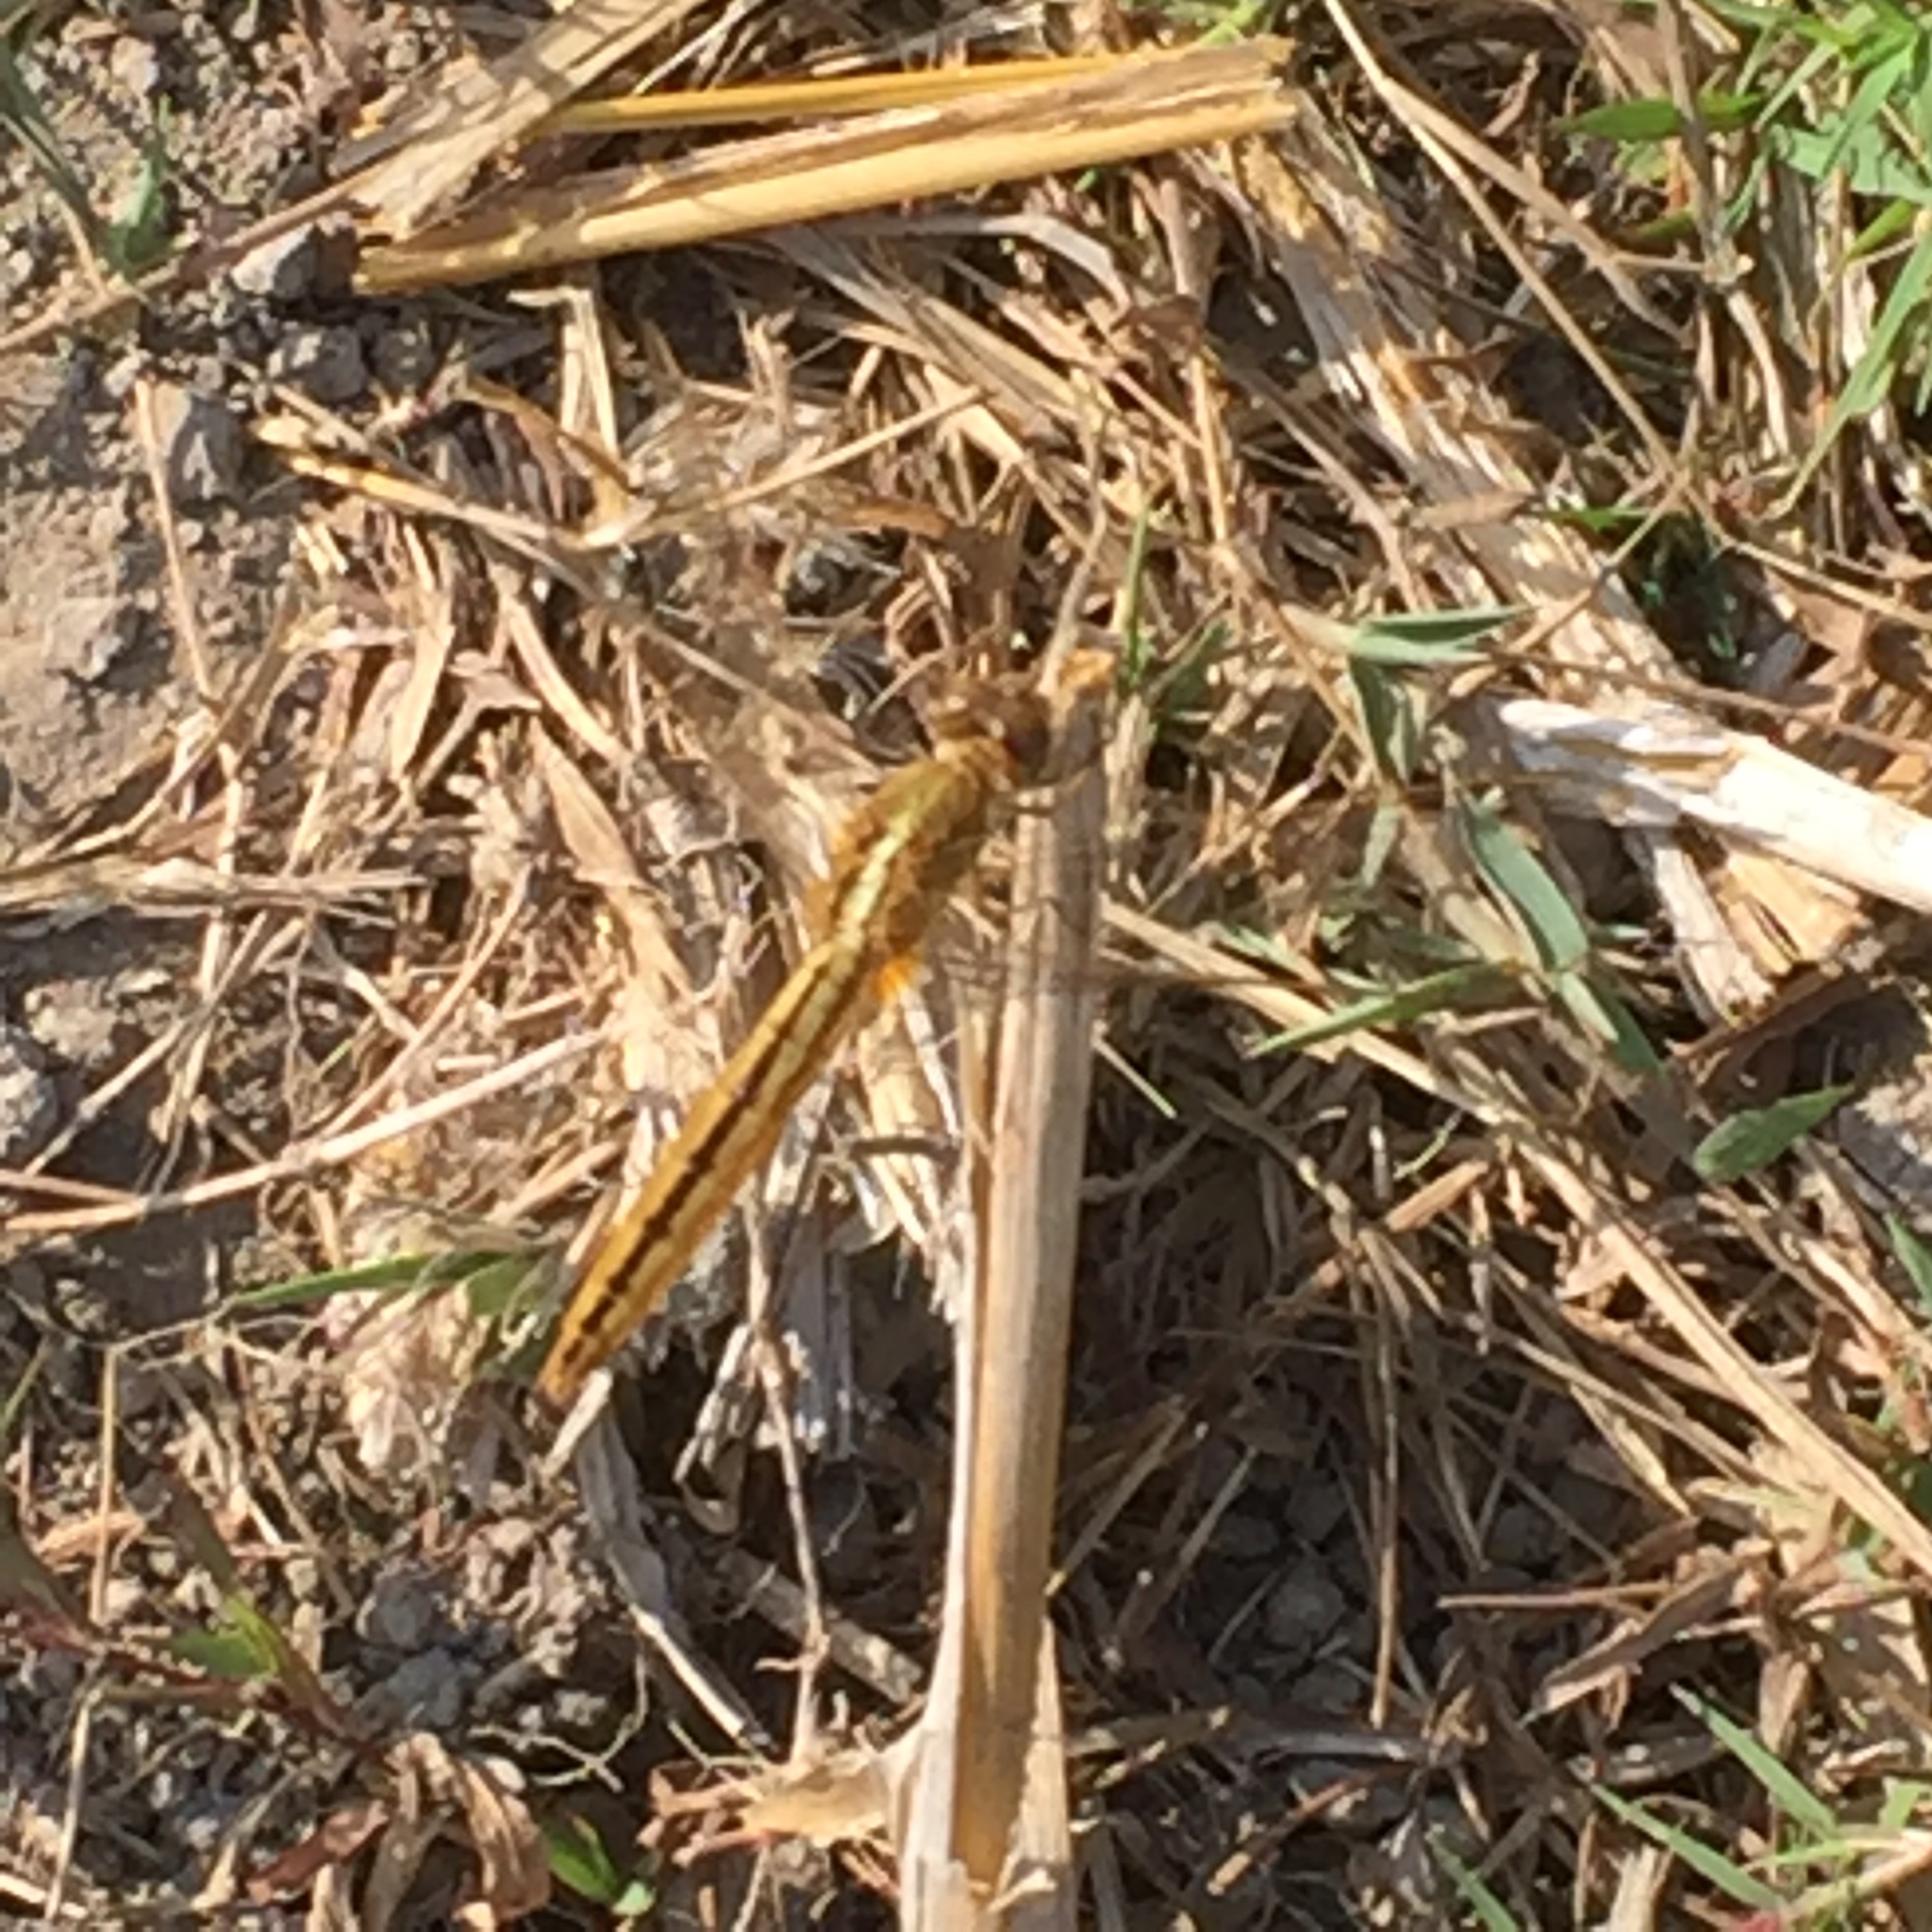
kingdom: Animalia
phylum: Arthropoda
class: Insecta
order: Odonata
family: Libellulidae
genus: Crocothemis
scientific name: Crocothemis servilia
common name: Scarlet skimmer
